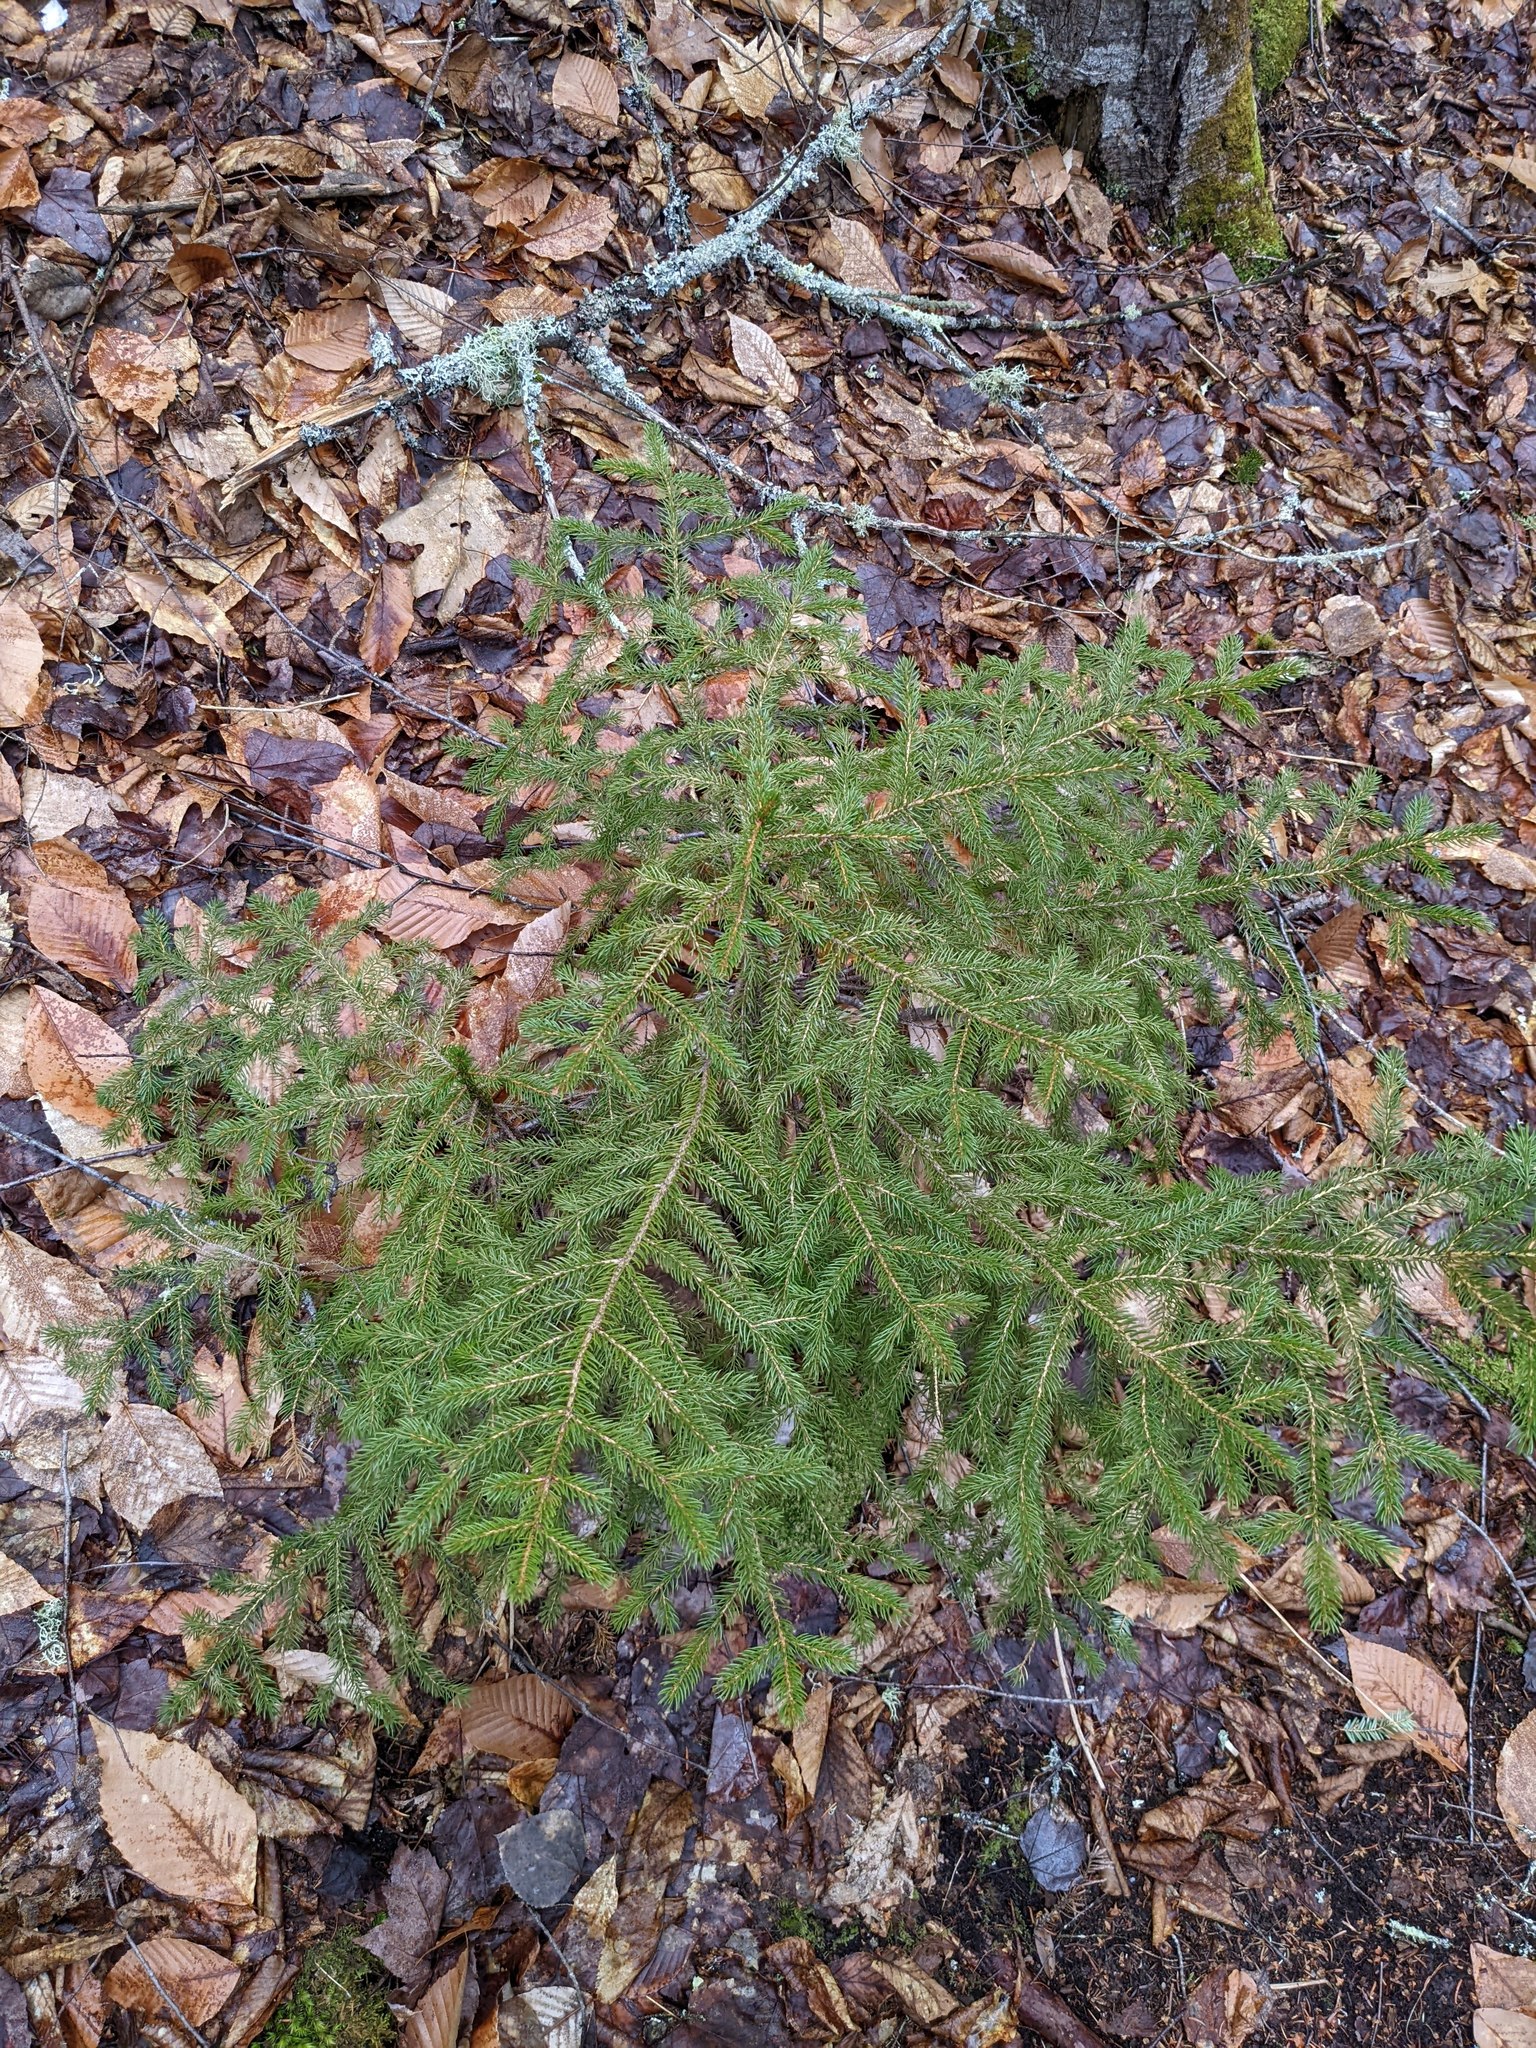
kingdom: Plantae
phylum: Tracheophyta
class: Pinopsida
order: Pinales
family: Pinaceae
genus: Picea
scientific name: Picea rubens
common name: Red spruce
